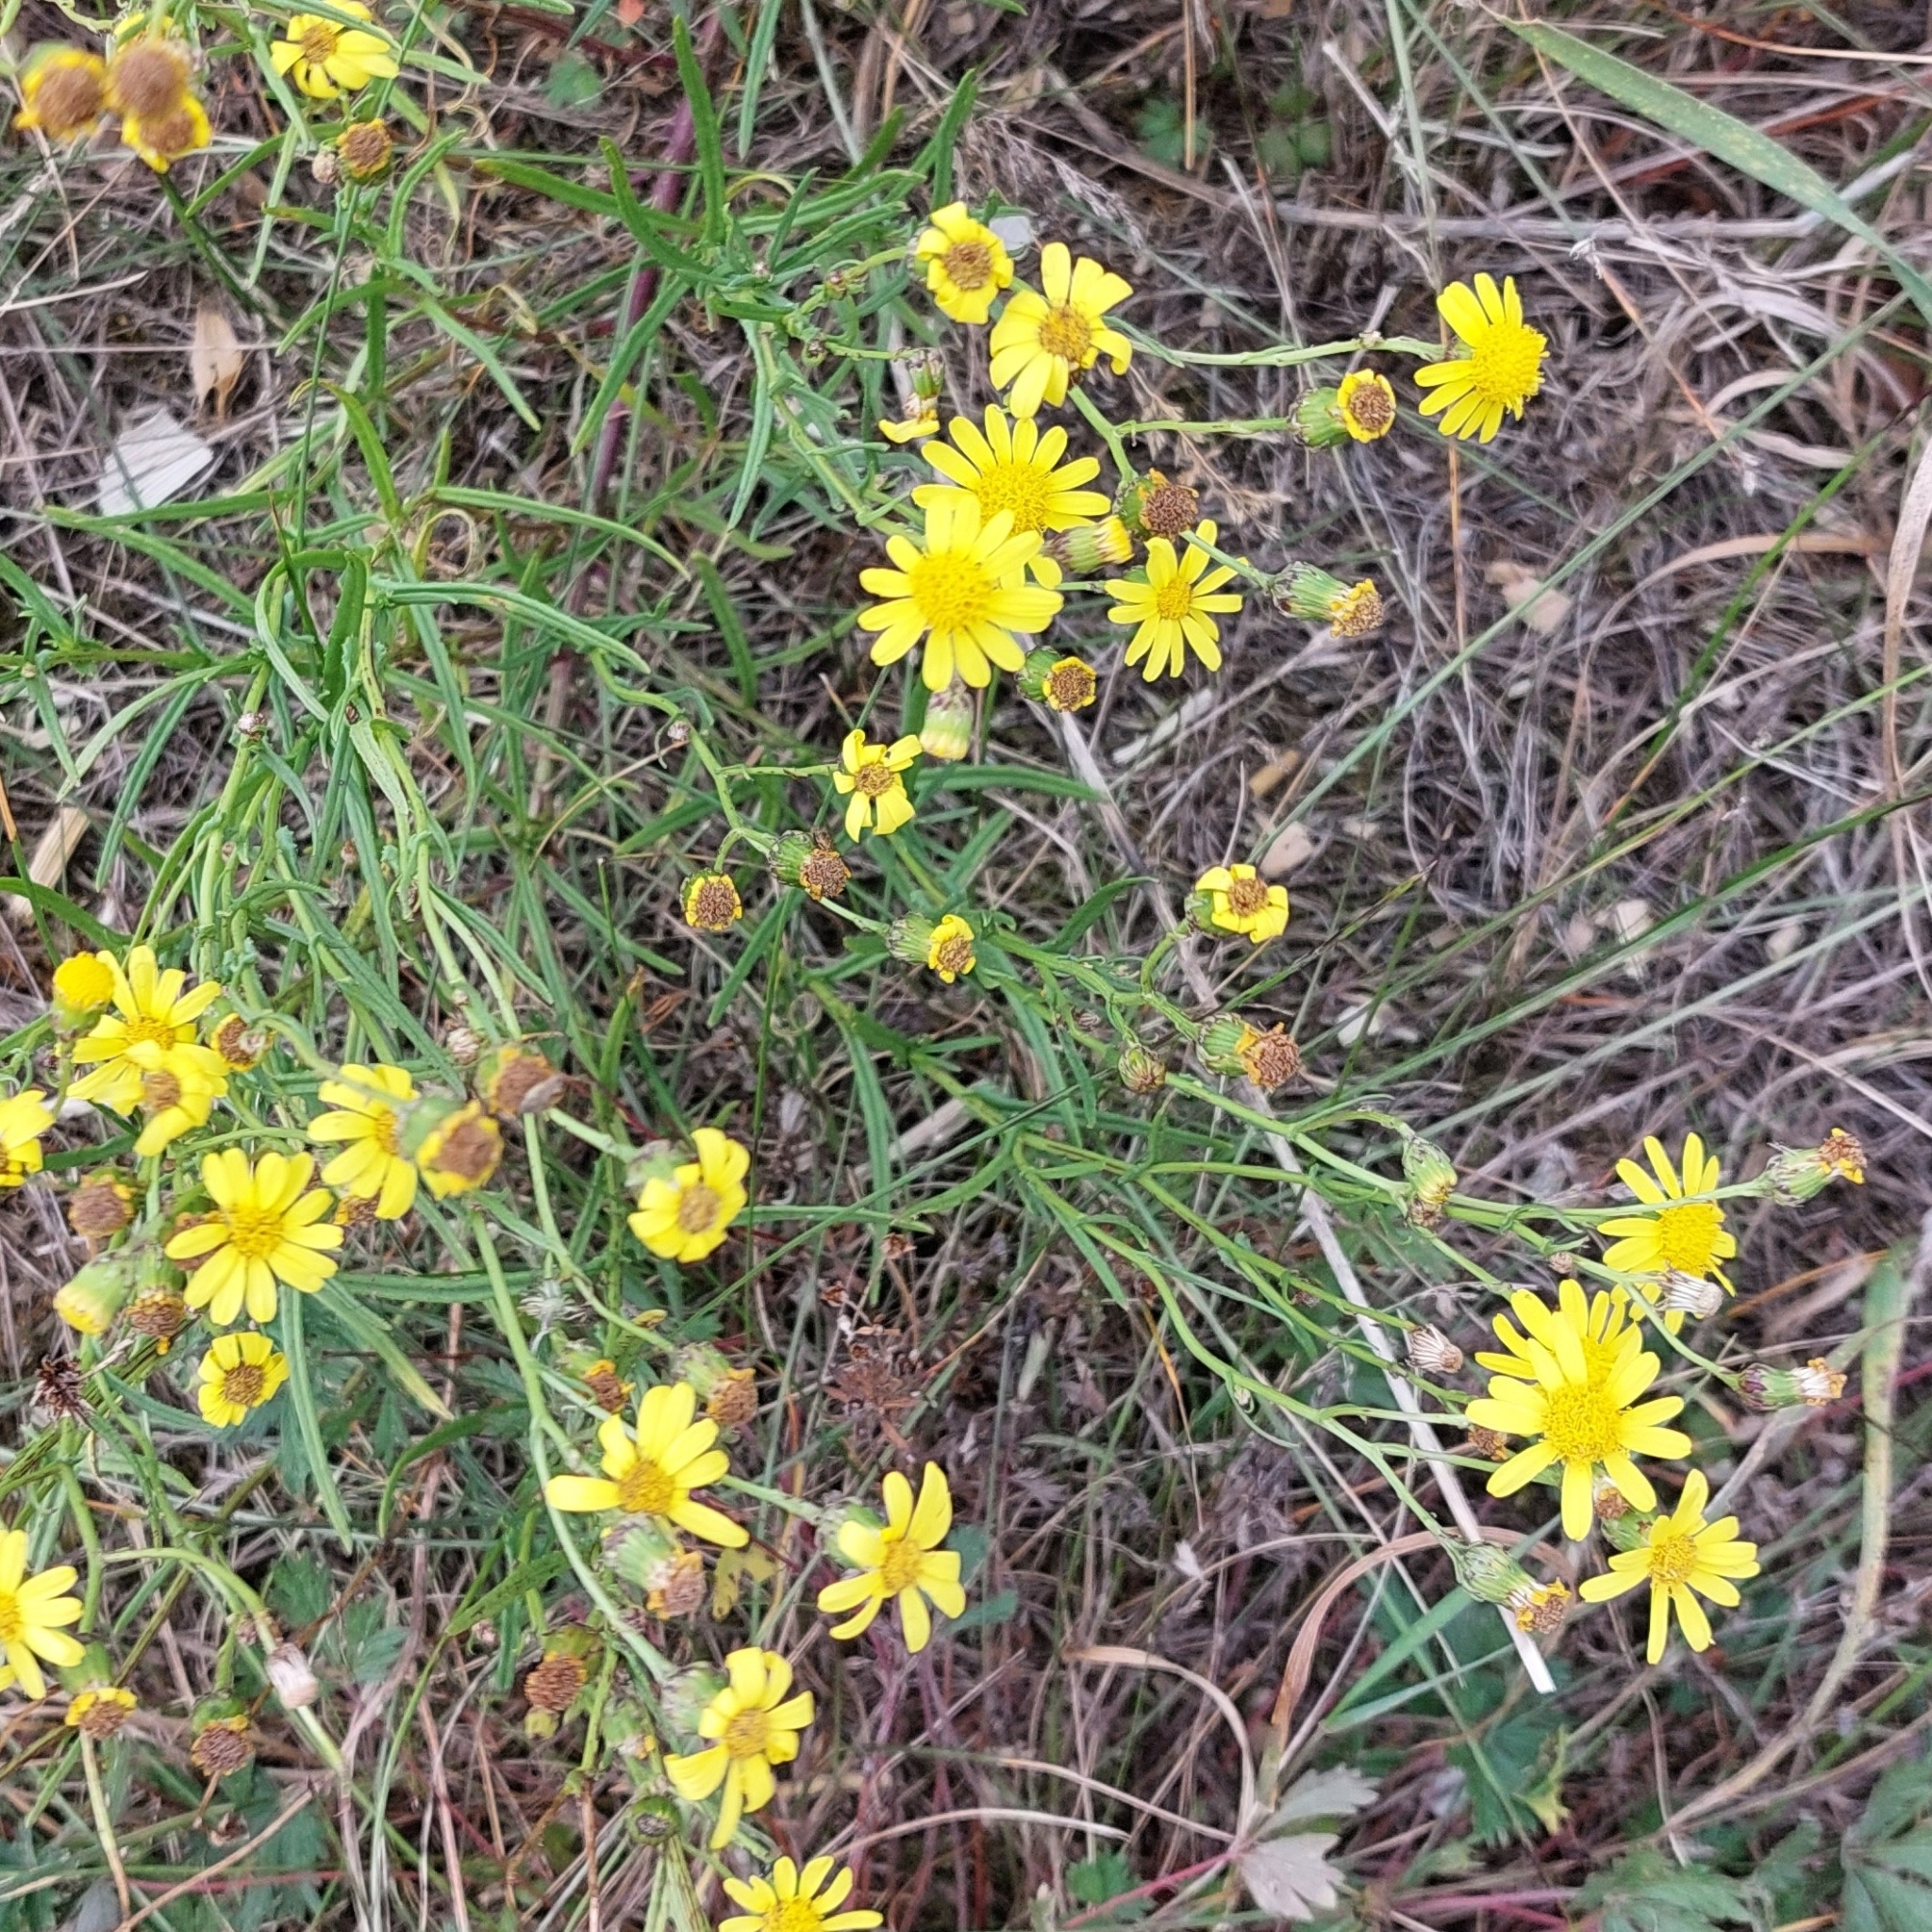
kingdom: Plantae
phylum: Tracheophyta
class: Magnoliopsida
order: Asterales
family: Asteraceae
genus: Senecio
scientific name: Senecio inaequidens
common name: Narrow-leaved ragwort
